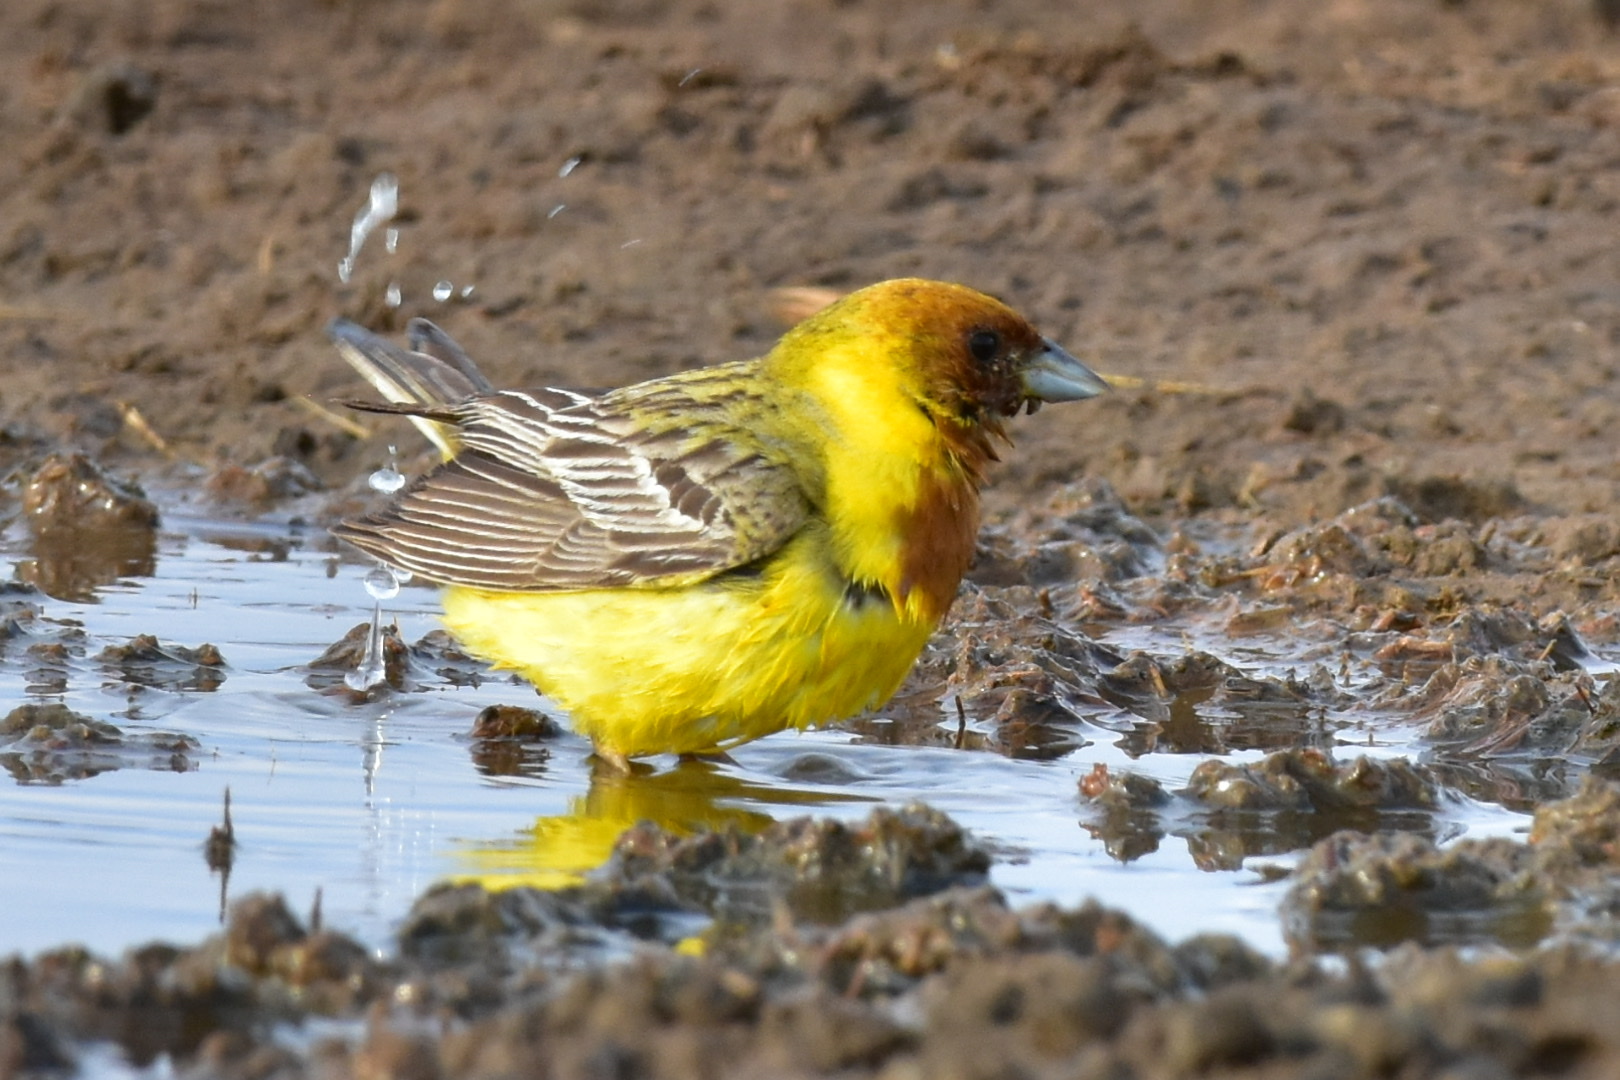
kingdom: Animalia
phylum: Chordata
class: Aves
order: Passeriformes
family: Emberizidae
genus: Emberiza
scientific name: Emberiza bruniceps
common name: Red-headed bunting
